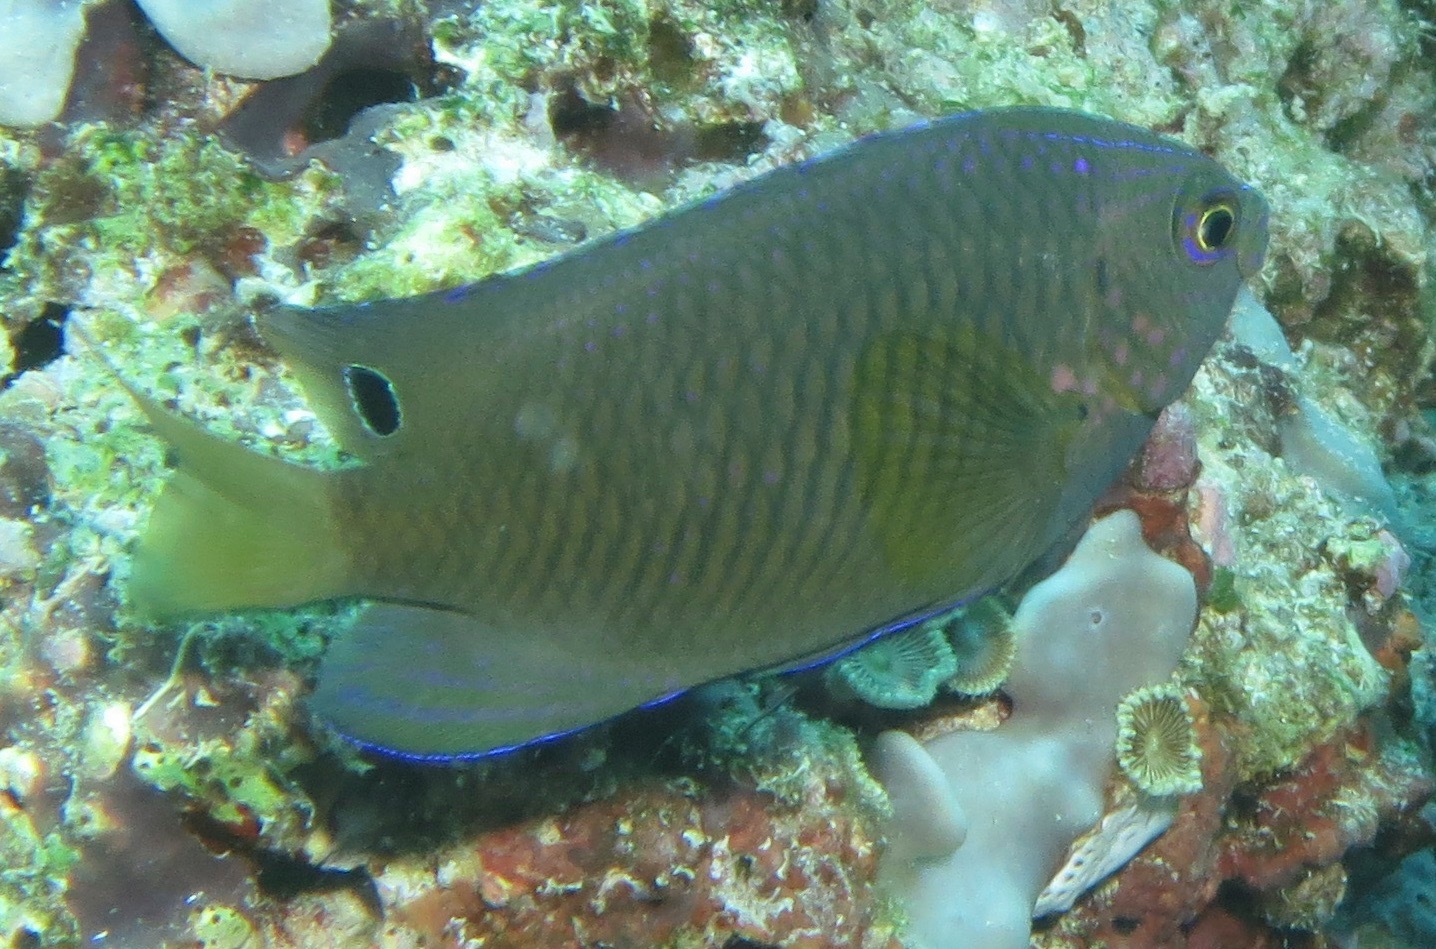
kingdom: Animalia
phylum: Chordata
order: Perciformes
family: Pomacentridae
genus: Pomacentrus
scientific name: Pomacentrus spilotoceps
